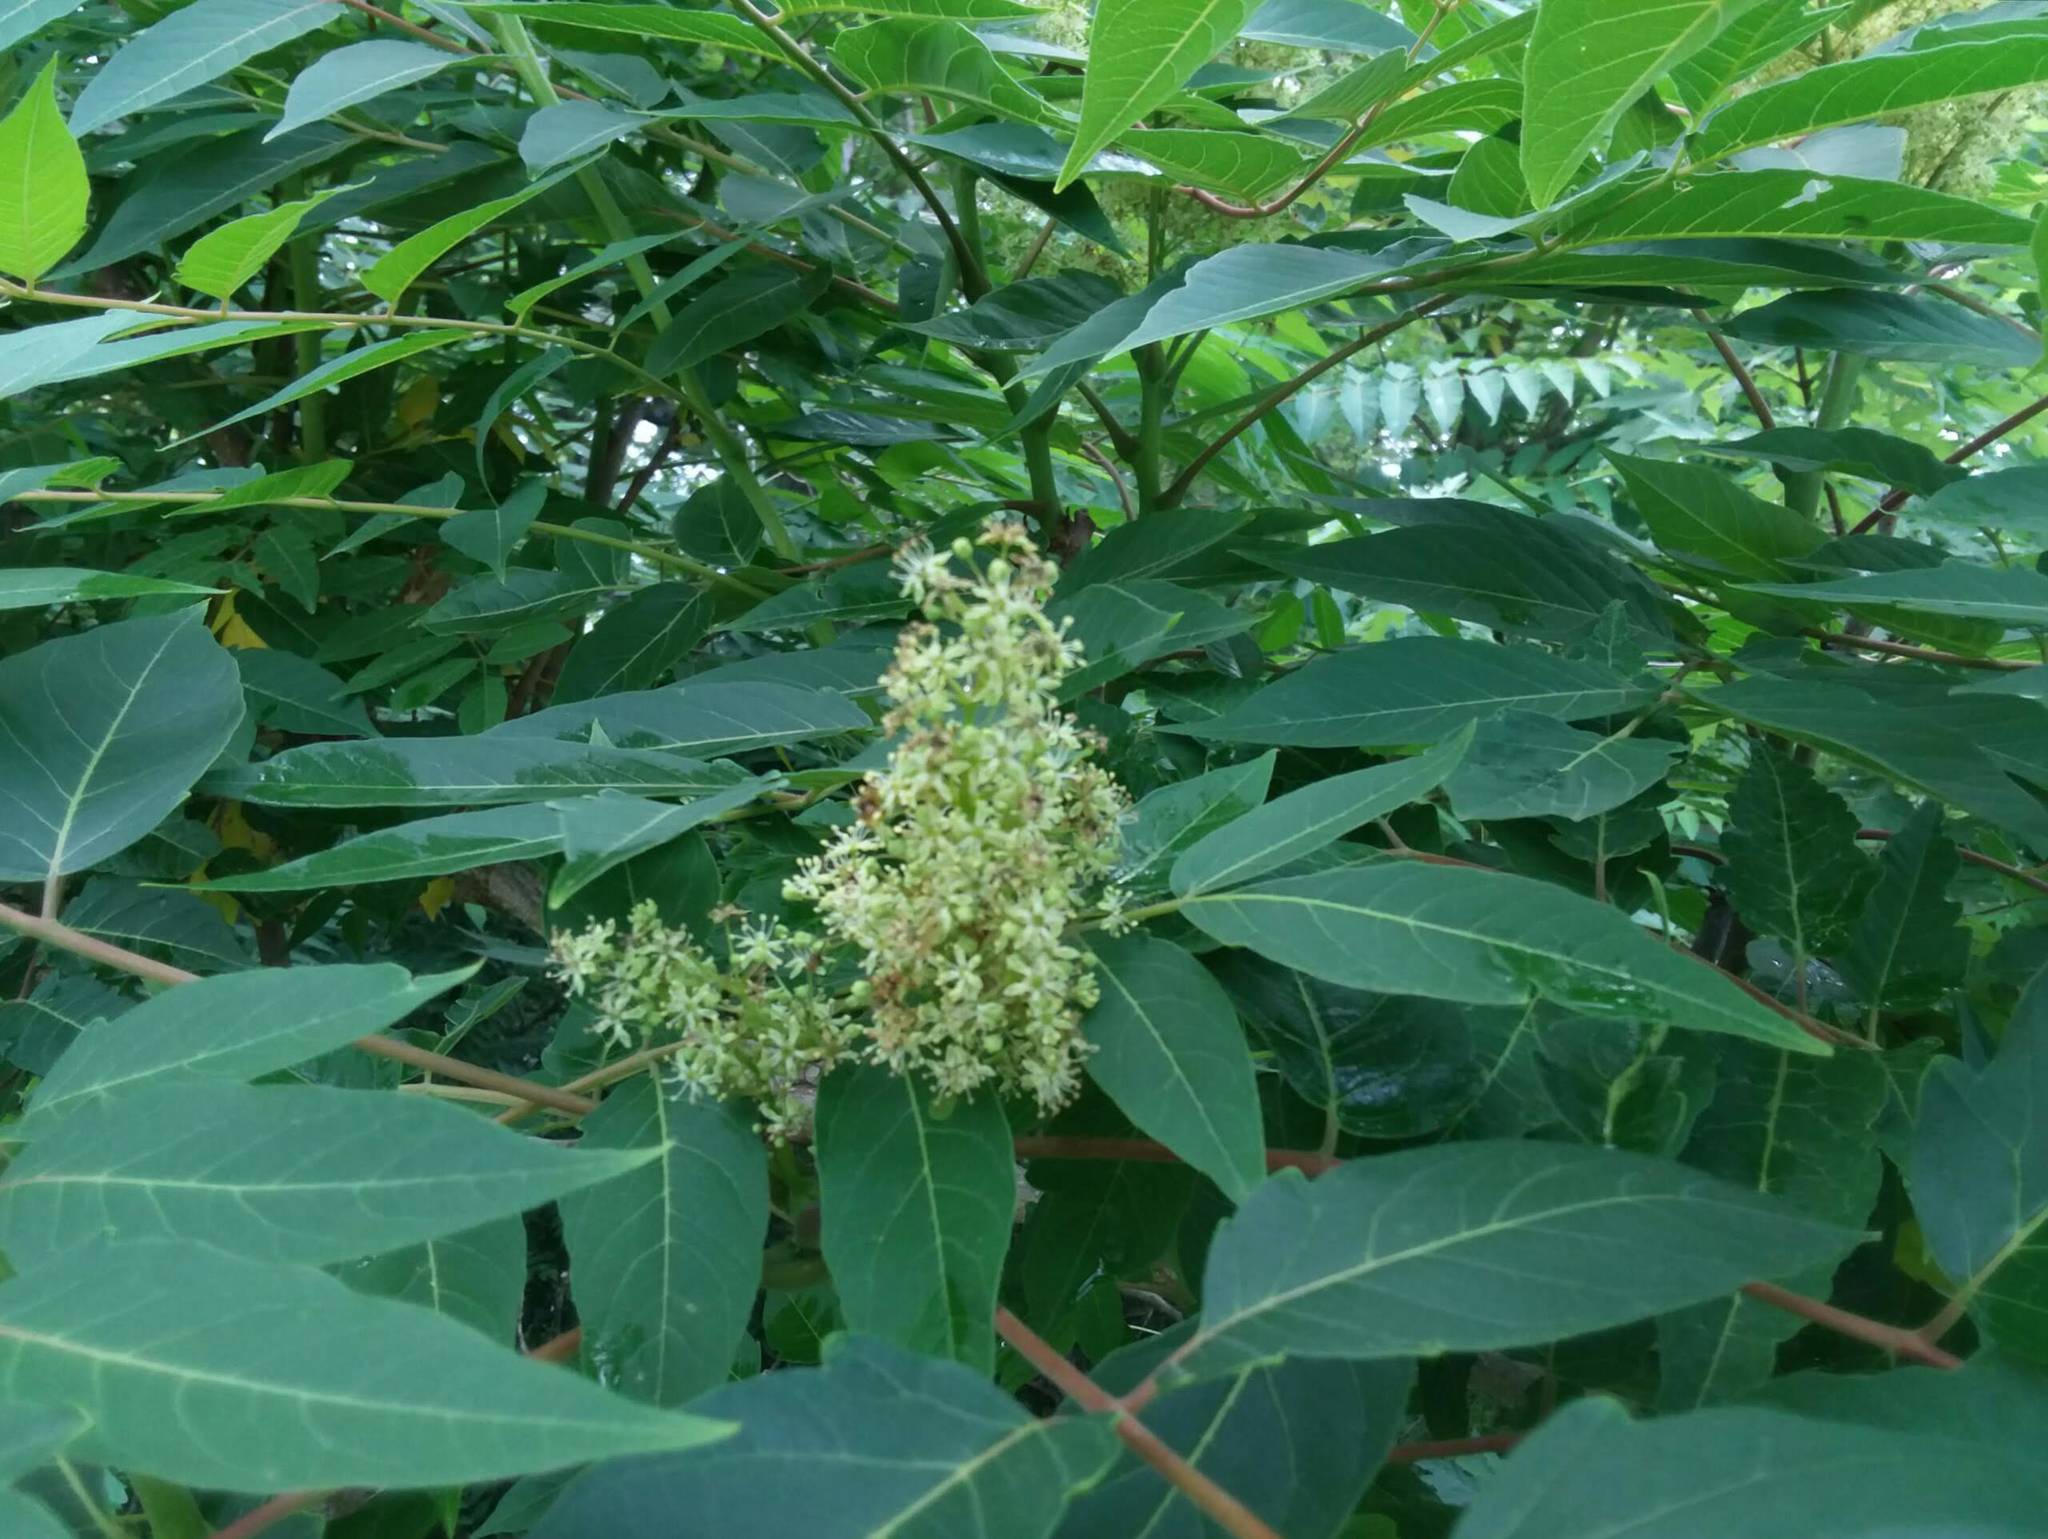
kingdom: Plantae
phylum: Tracheophyta
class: Magnoliopsida
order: Sapindales
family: Anacardiaceae
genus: Rhus
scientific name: Rhus glabra
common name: Scarlet sumac
